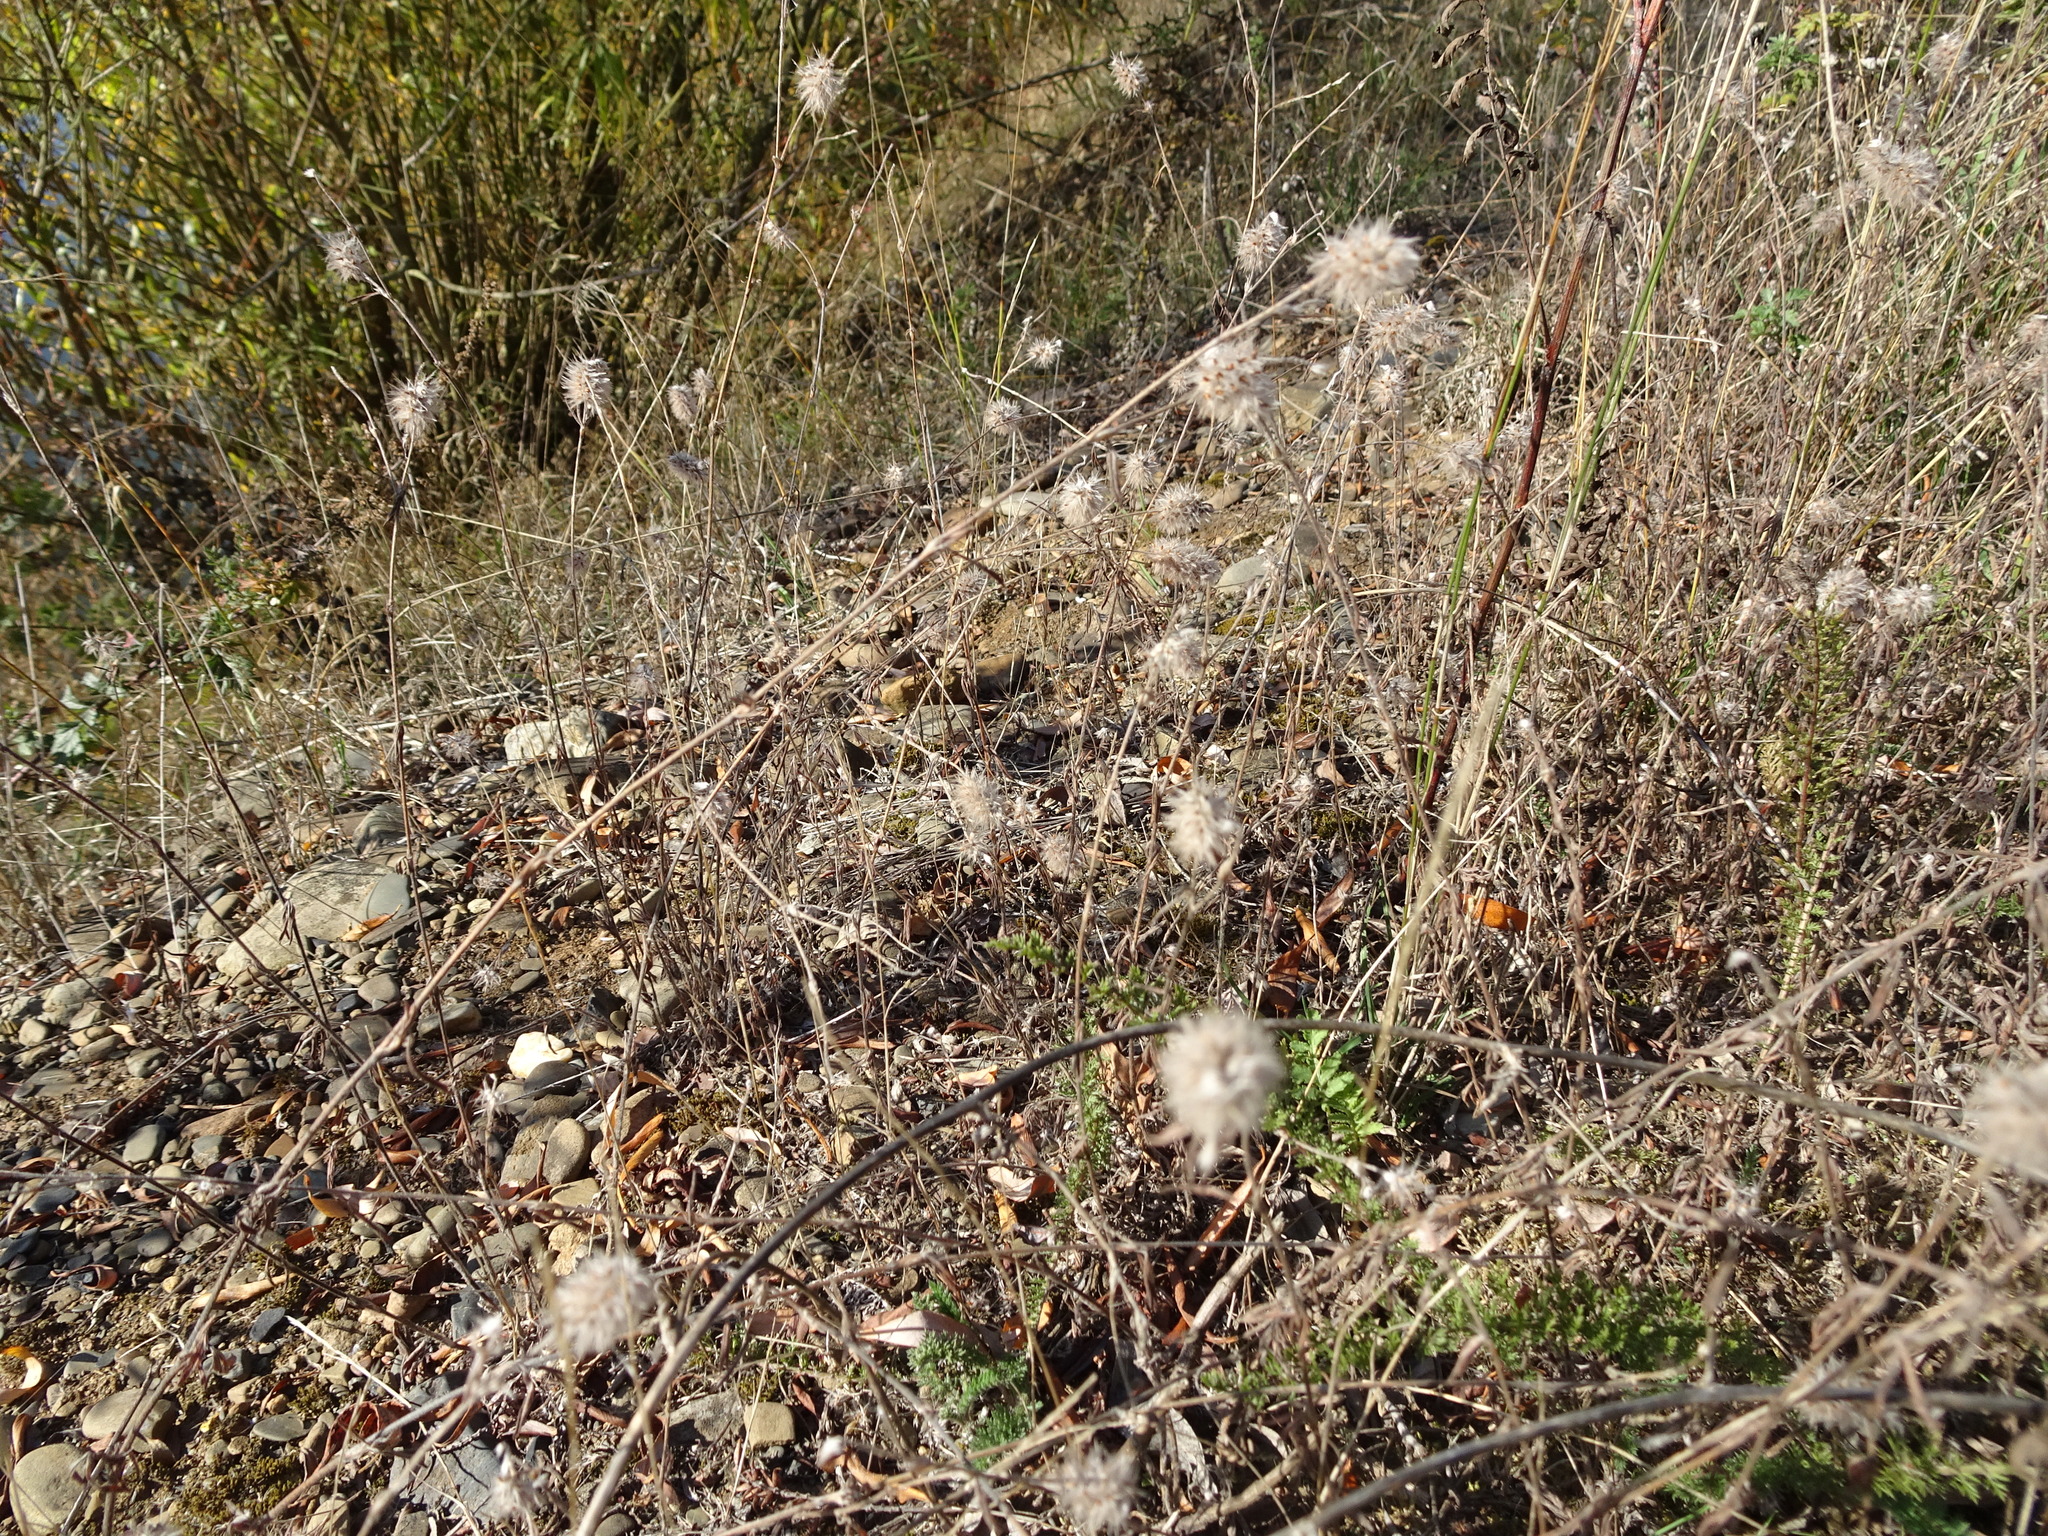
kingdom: Plantae
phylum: Tracheophyta
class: Magnoliopsida
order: Fabales
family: Fabaceae
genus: Trifolium
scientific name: Trifolium arvense
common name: Hare's-foot clover
